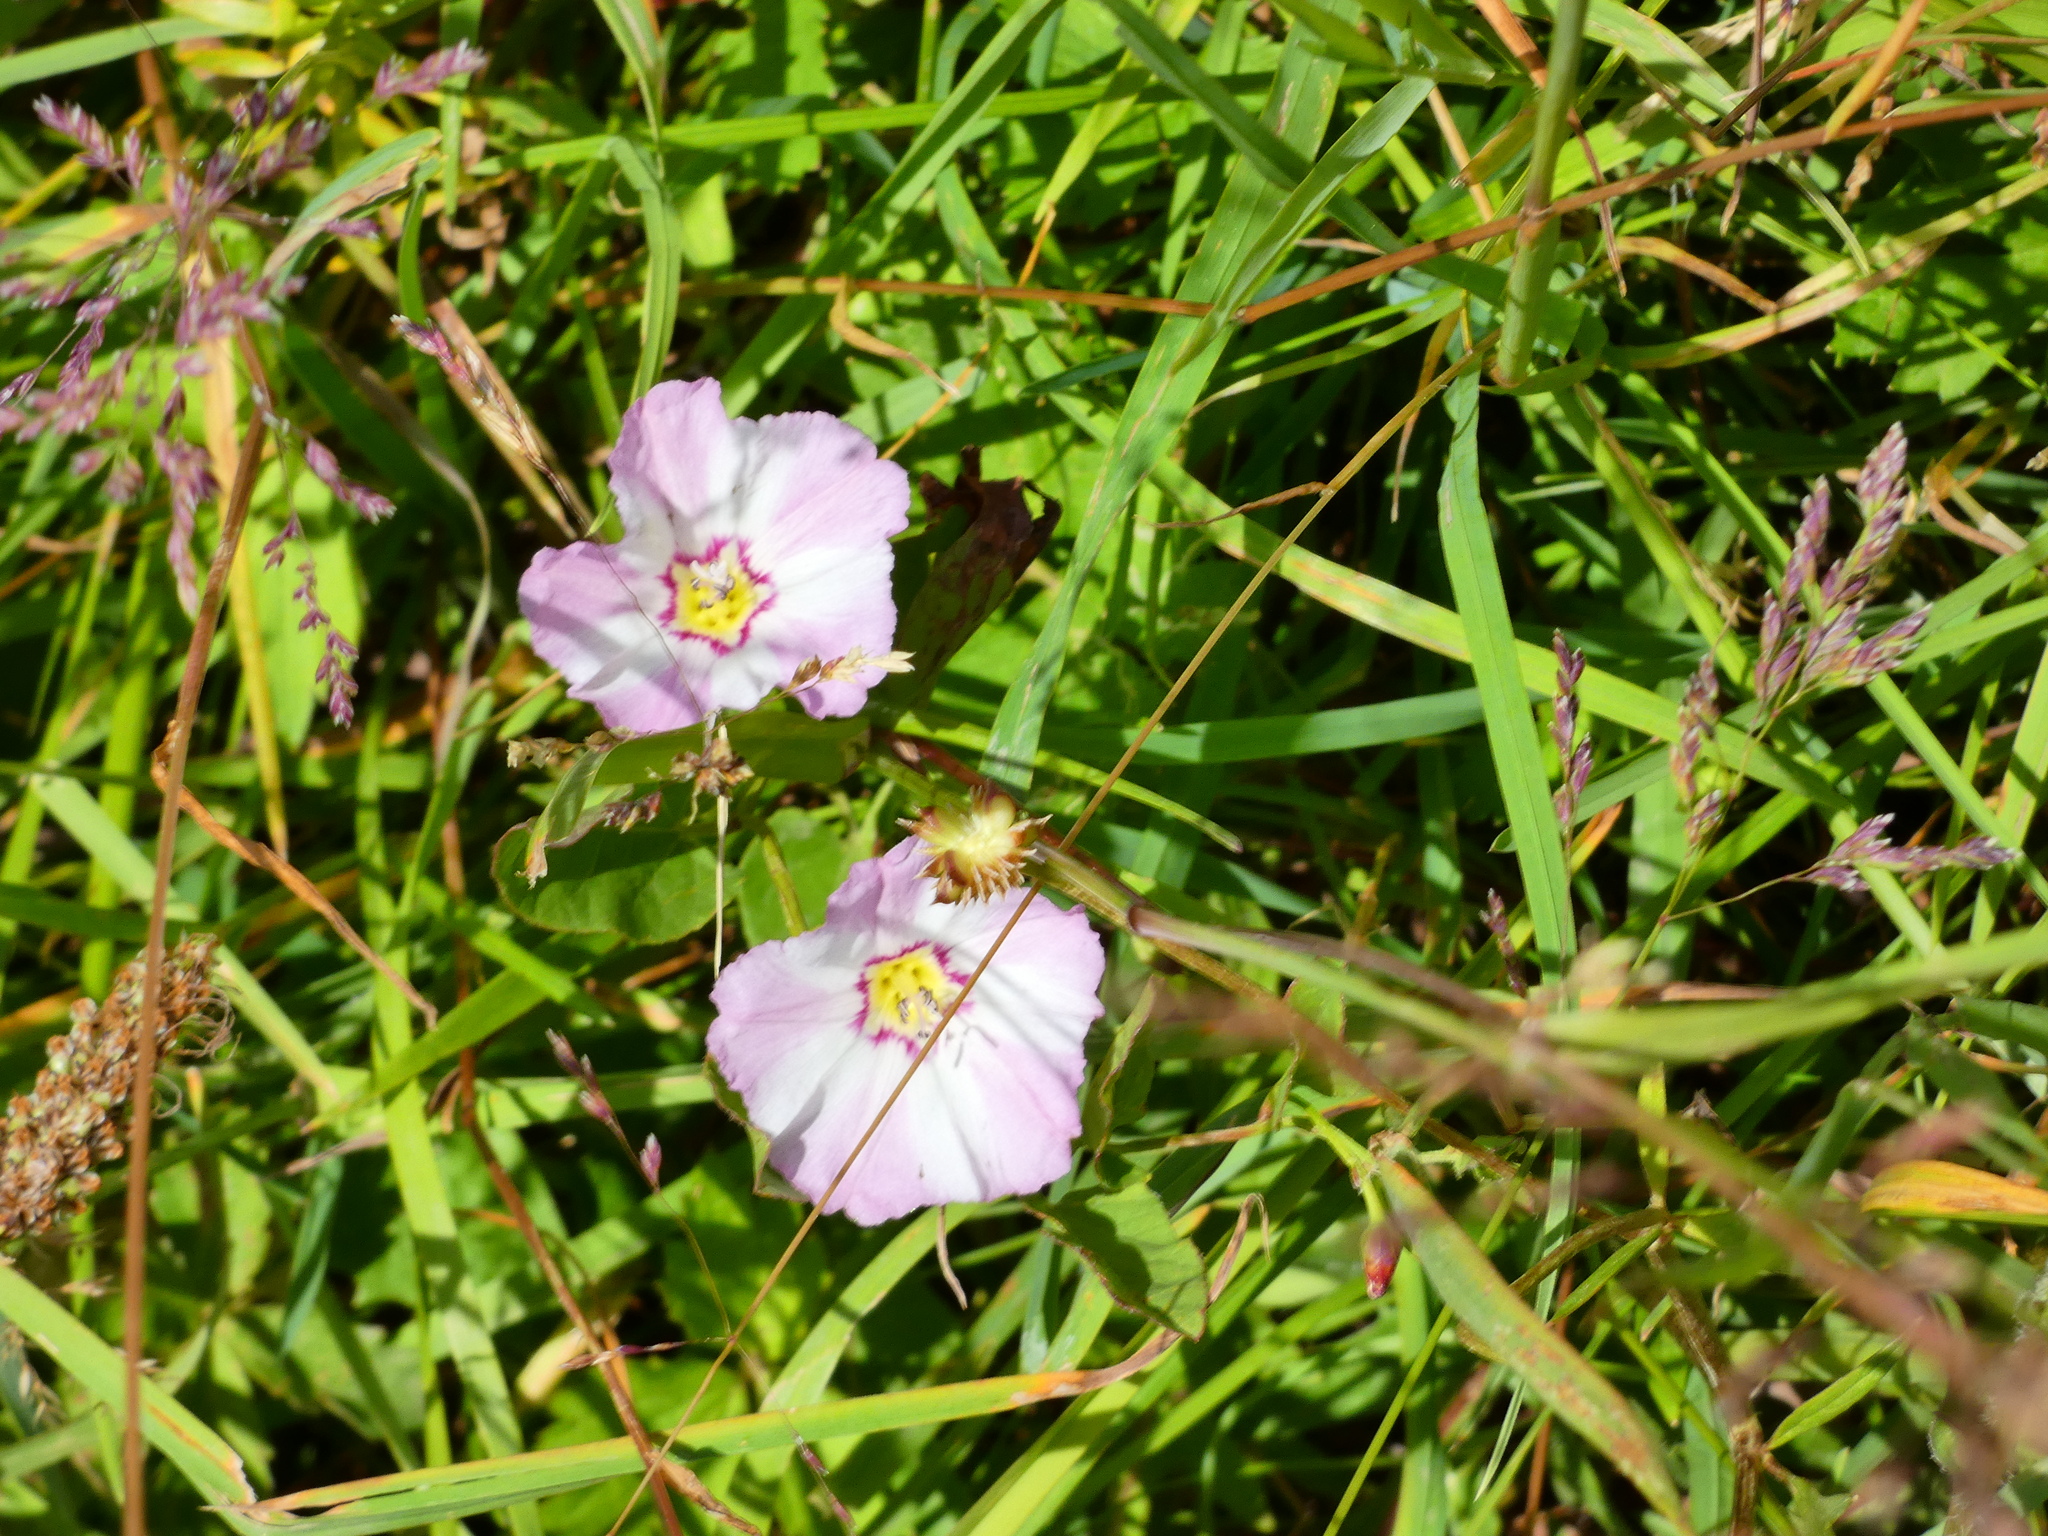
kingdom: Plantae
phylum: Tracheophyta
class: Magnoliopsida
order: Solanales
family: Convolvulaceae
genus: Convolvulus
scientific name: Convolvulus arvensis
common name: Field bindweed
